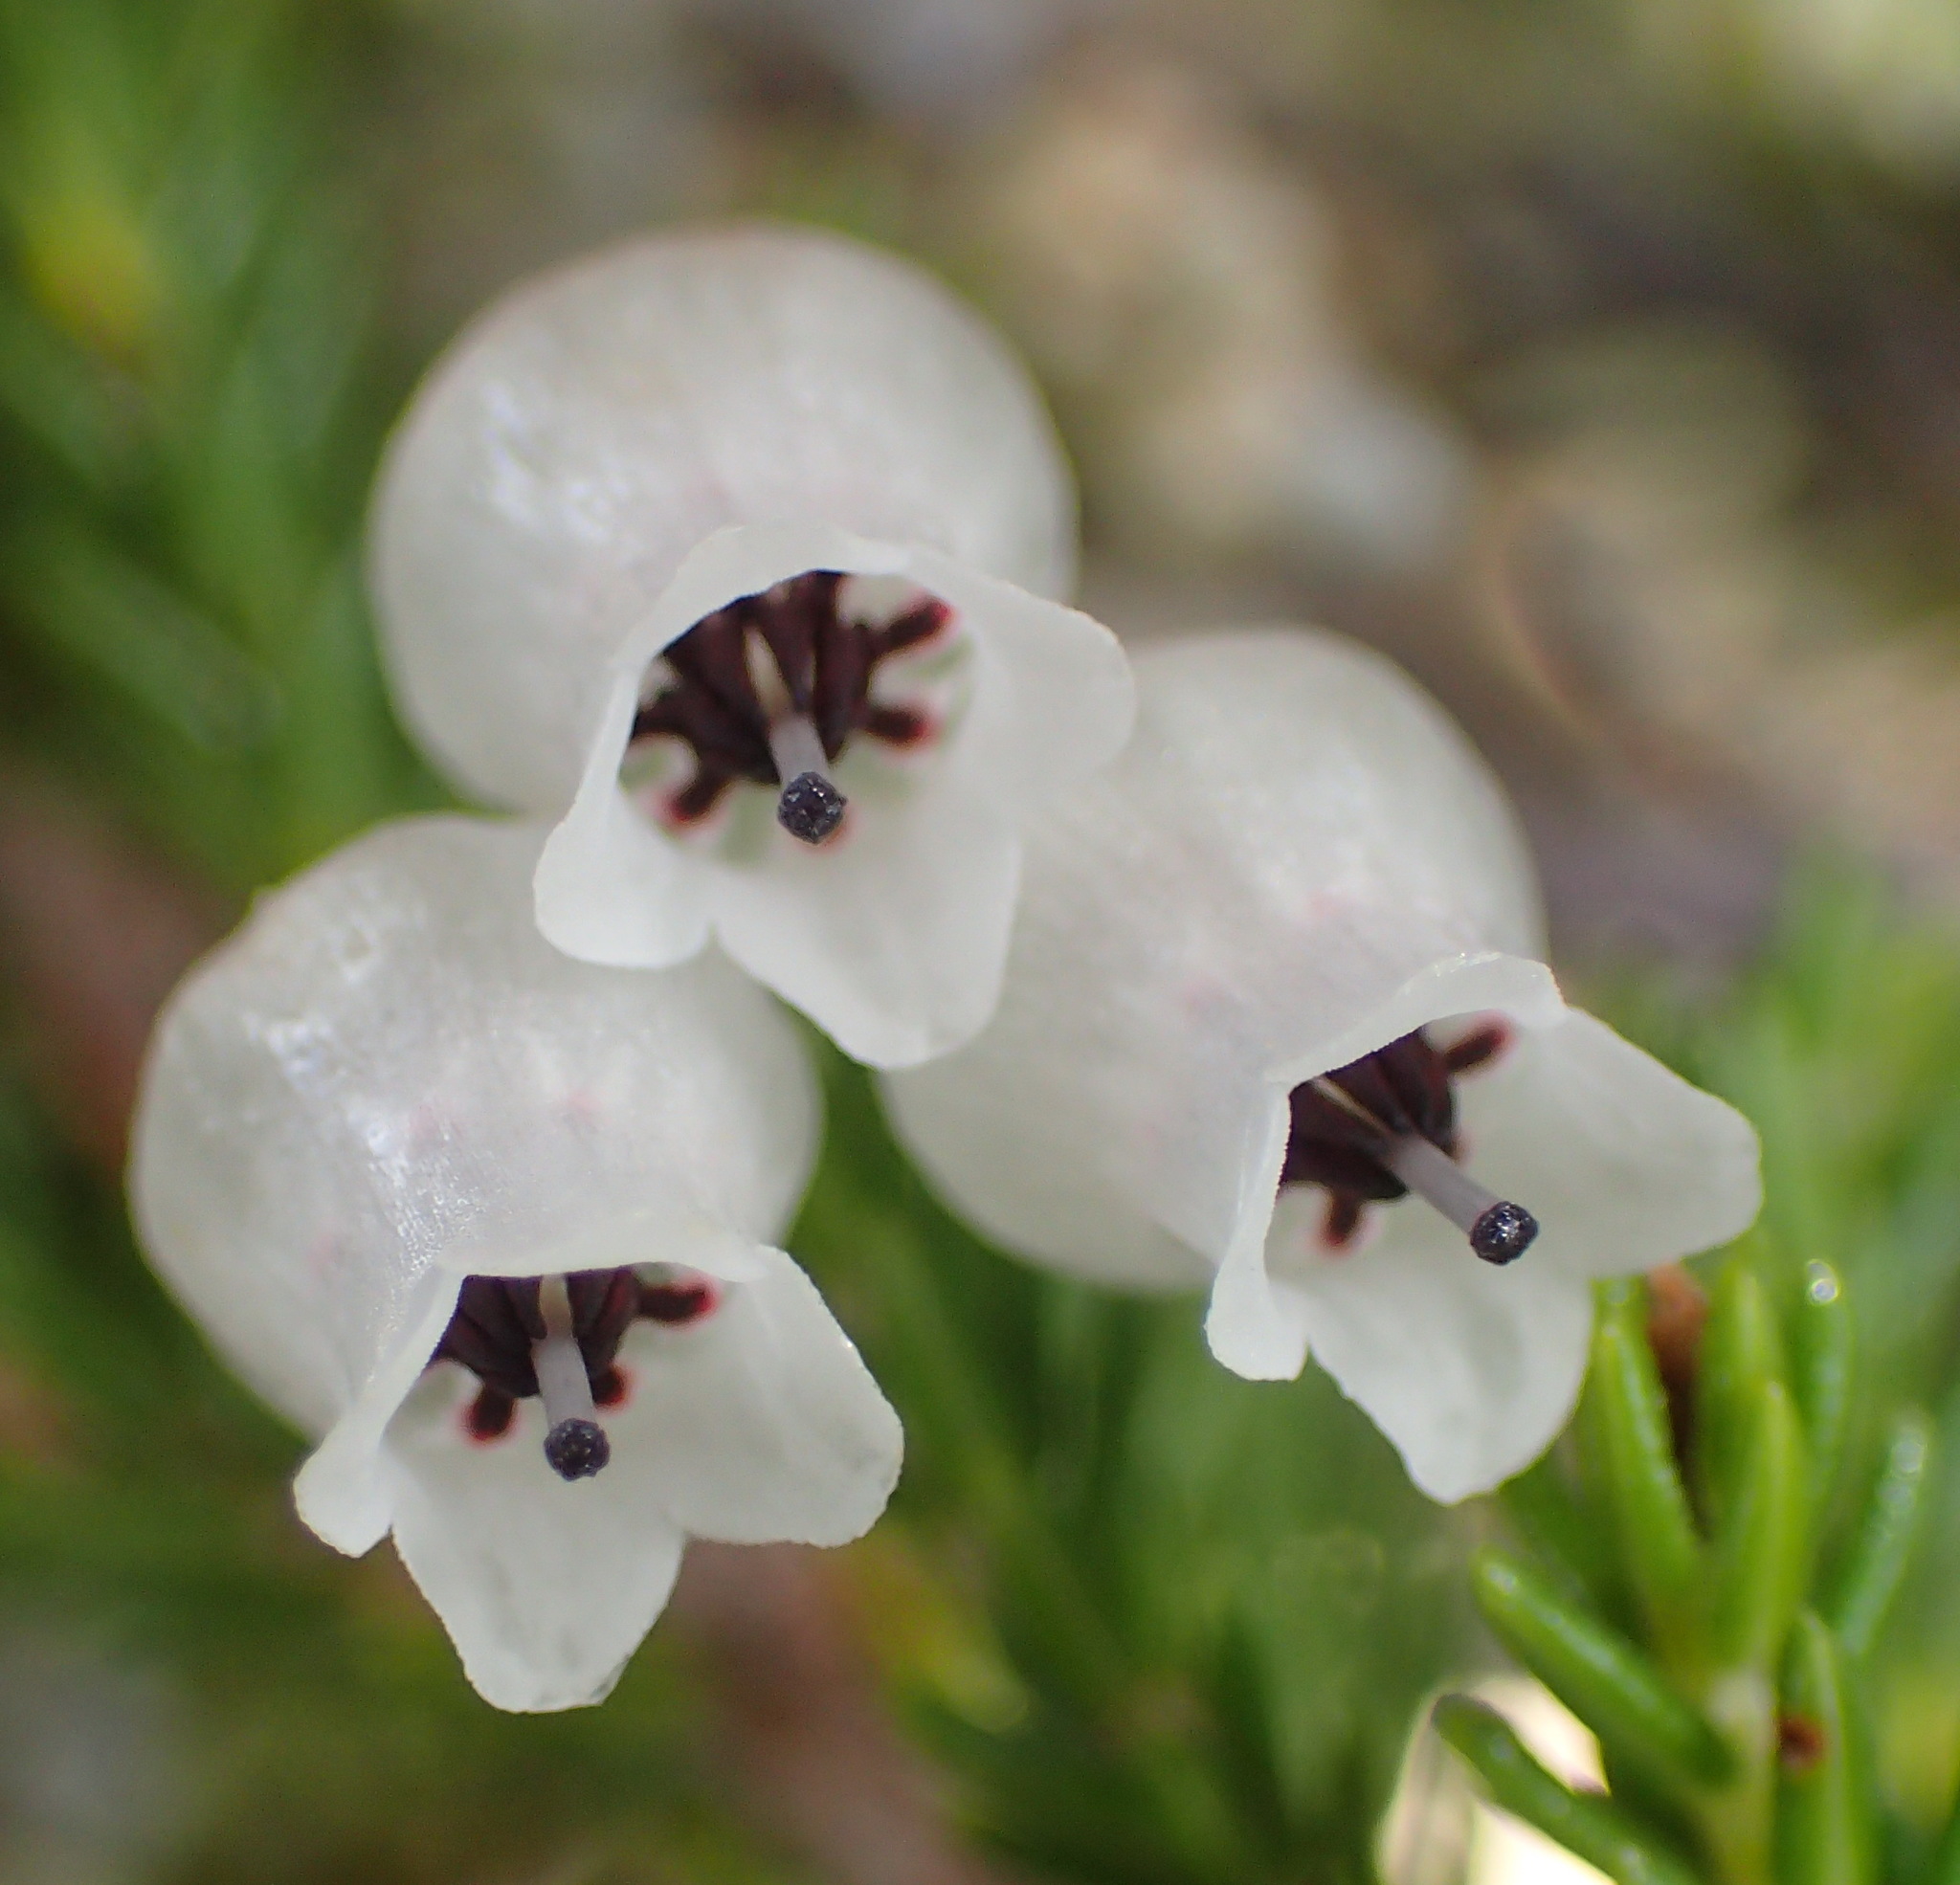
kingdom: Plantae
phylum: Tracheophyta
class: Magnoliopsida
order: Ericales
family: Ericaceae
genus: Erica
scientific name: Erica glomiflora
